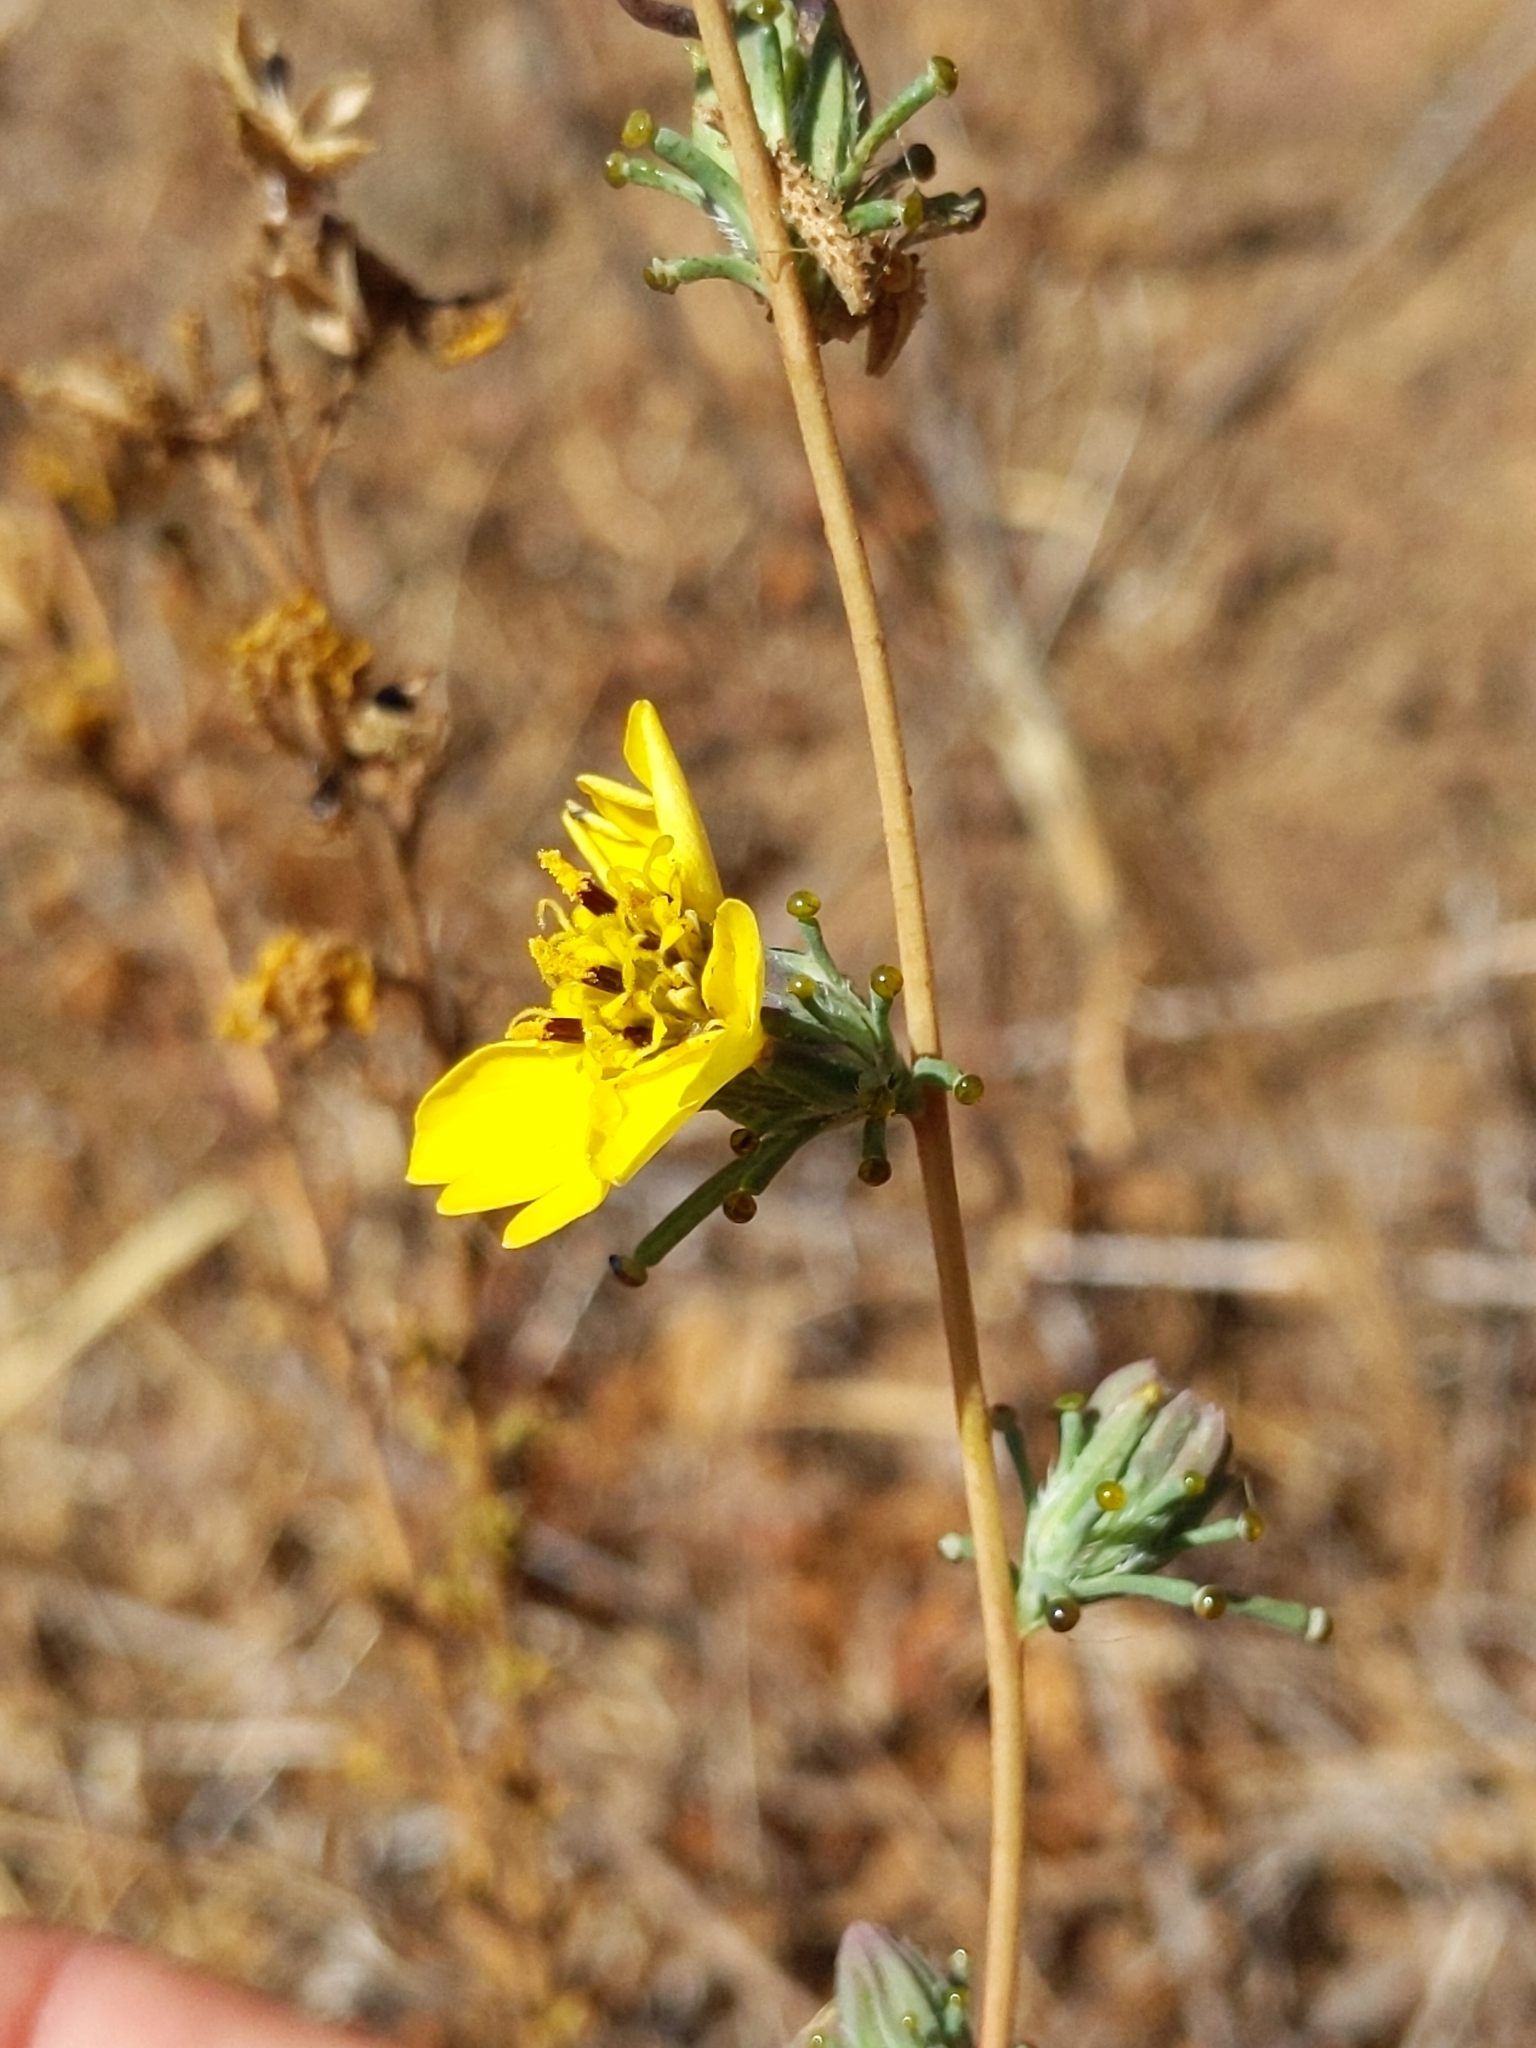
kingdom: Plantae
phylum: Tracheophyta
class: Magnoliopsida
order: Asterales
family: Asteraceae
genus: Calycadenia
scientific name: Calycadenia truncata
